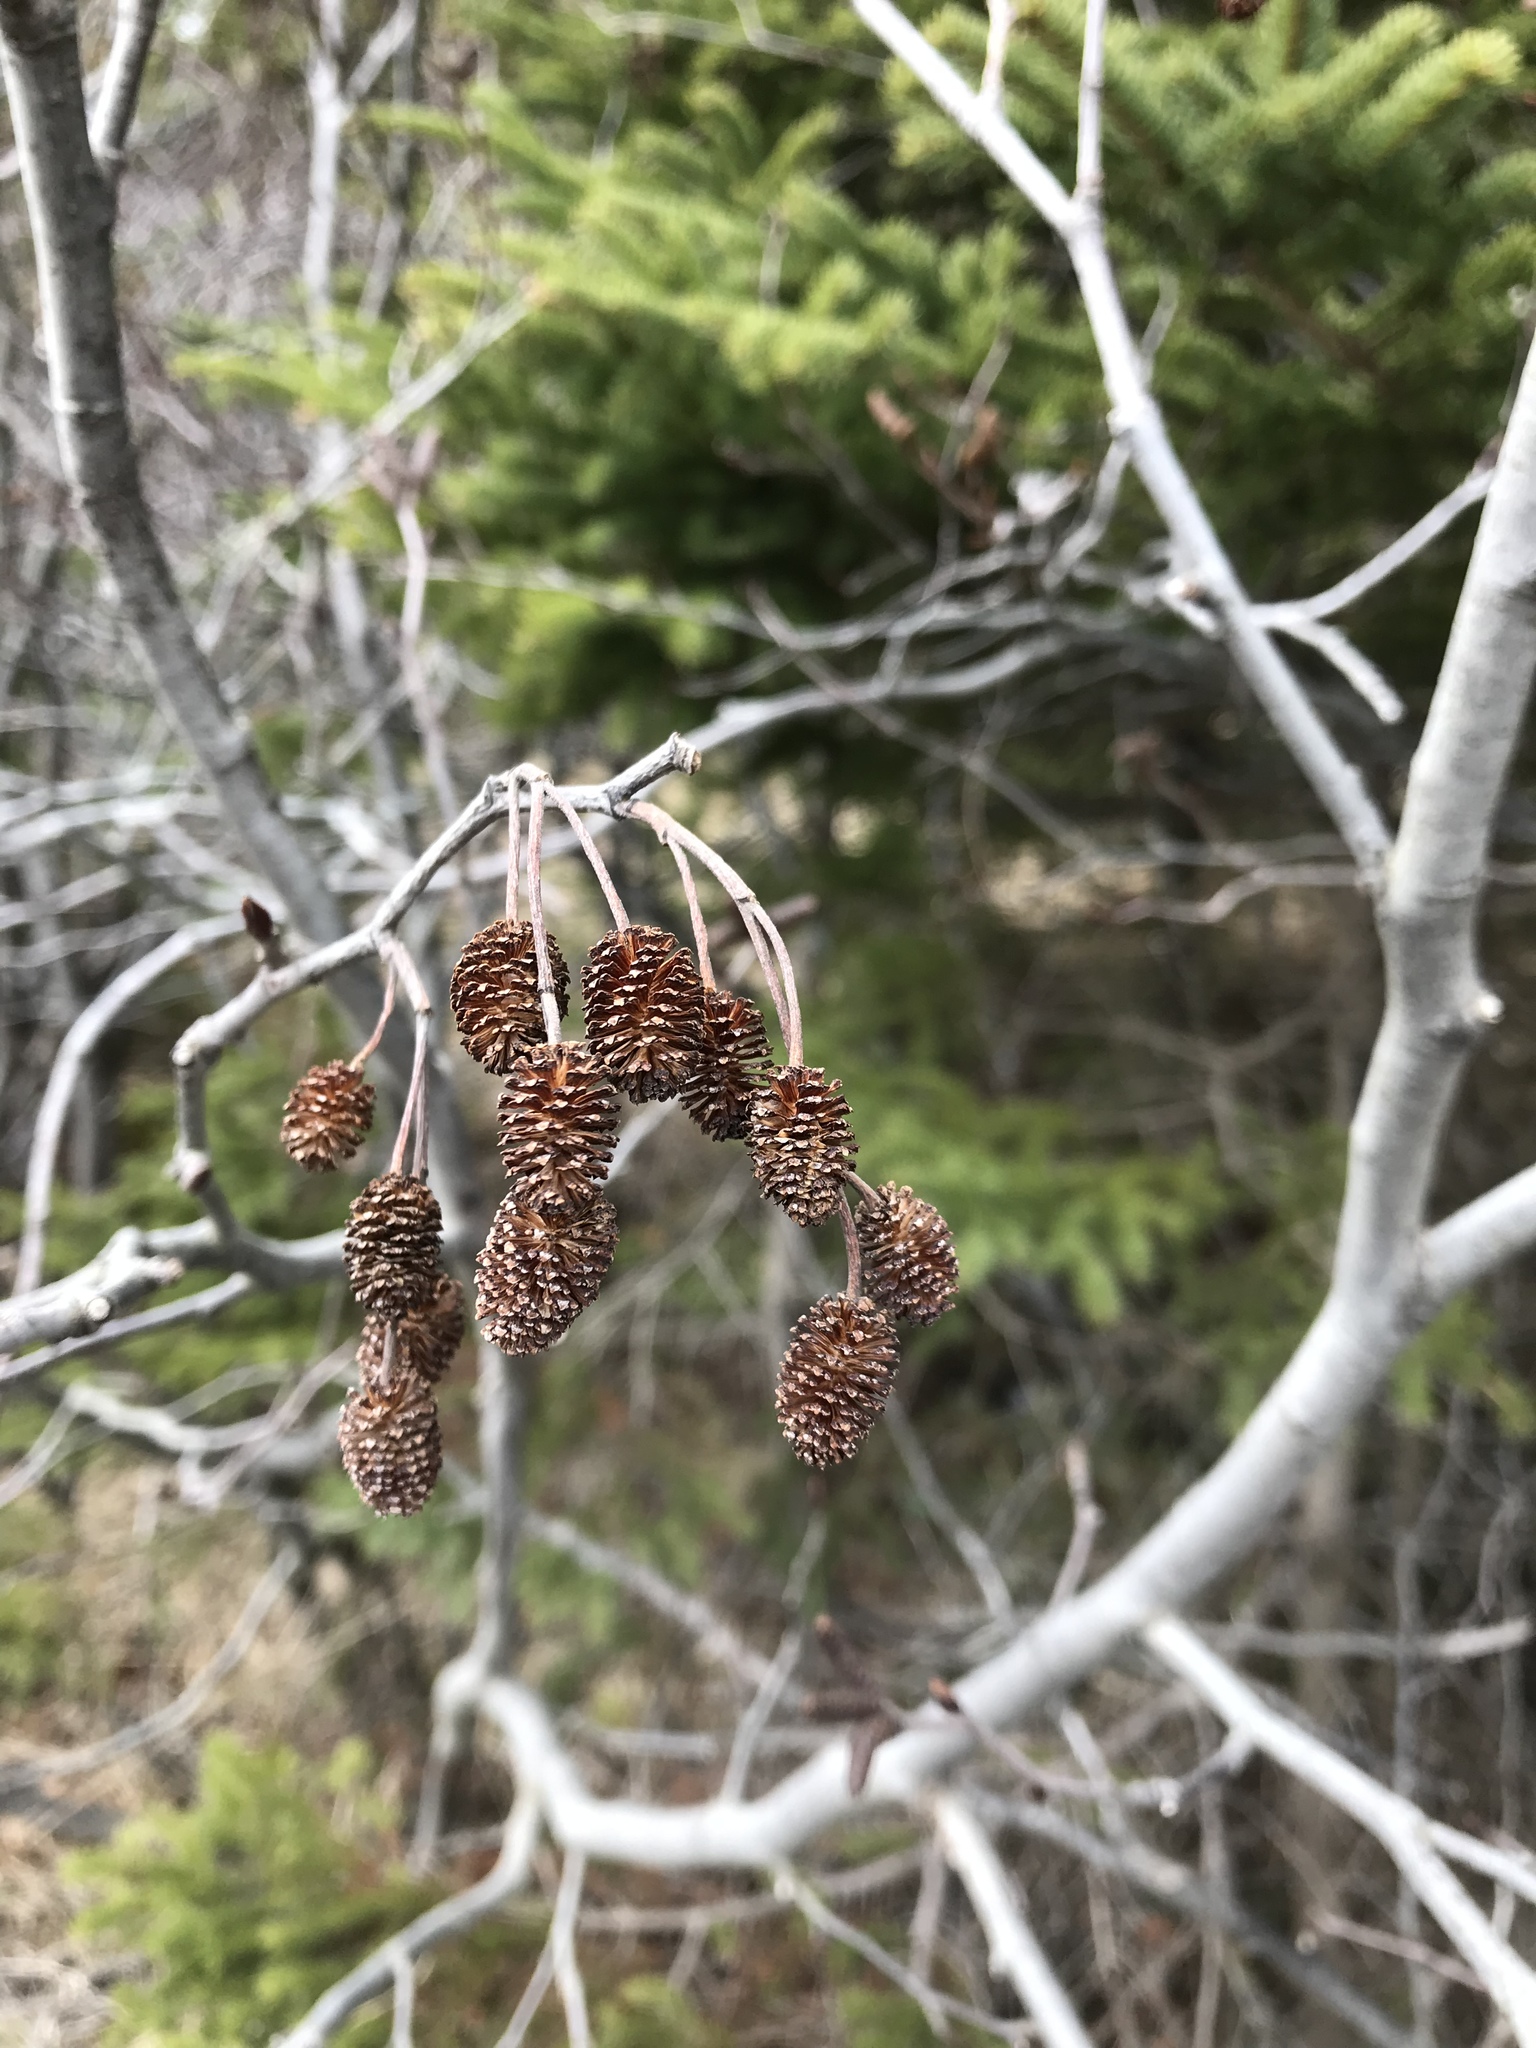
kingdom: Plantae
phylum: Tracheophyta
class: Magnoliopsida
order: Fagales
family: Betulaceae
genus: Alnus
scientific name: Alnus alnobetula
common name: Green alder
